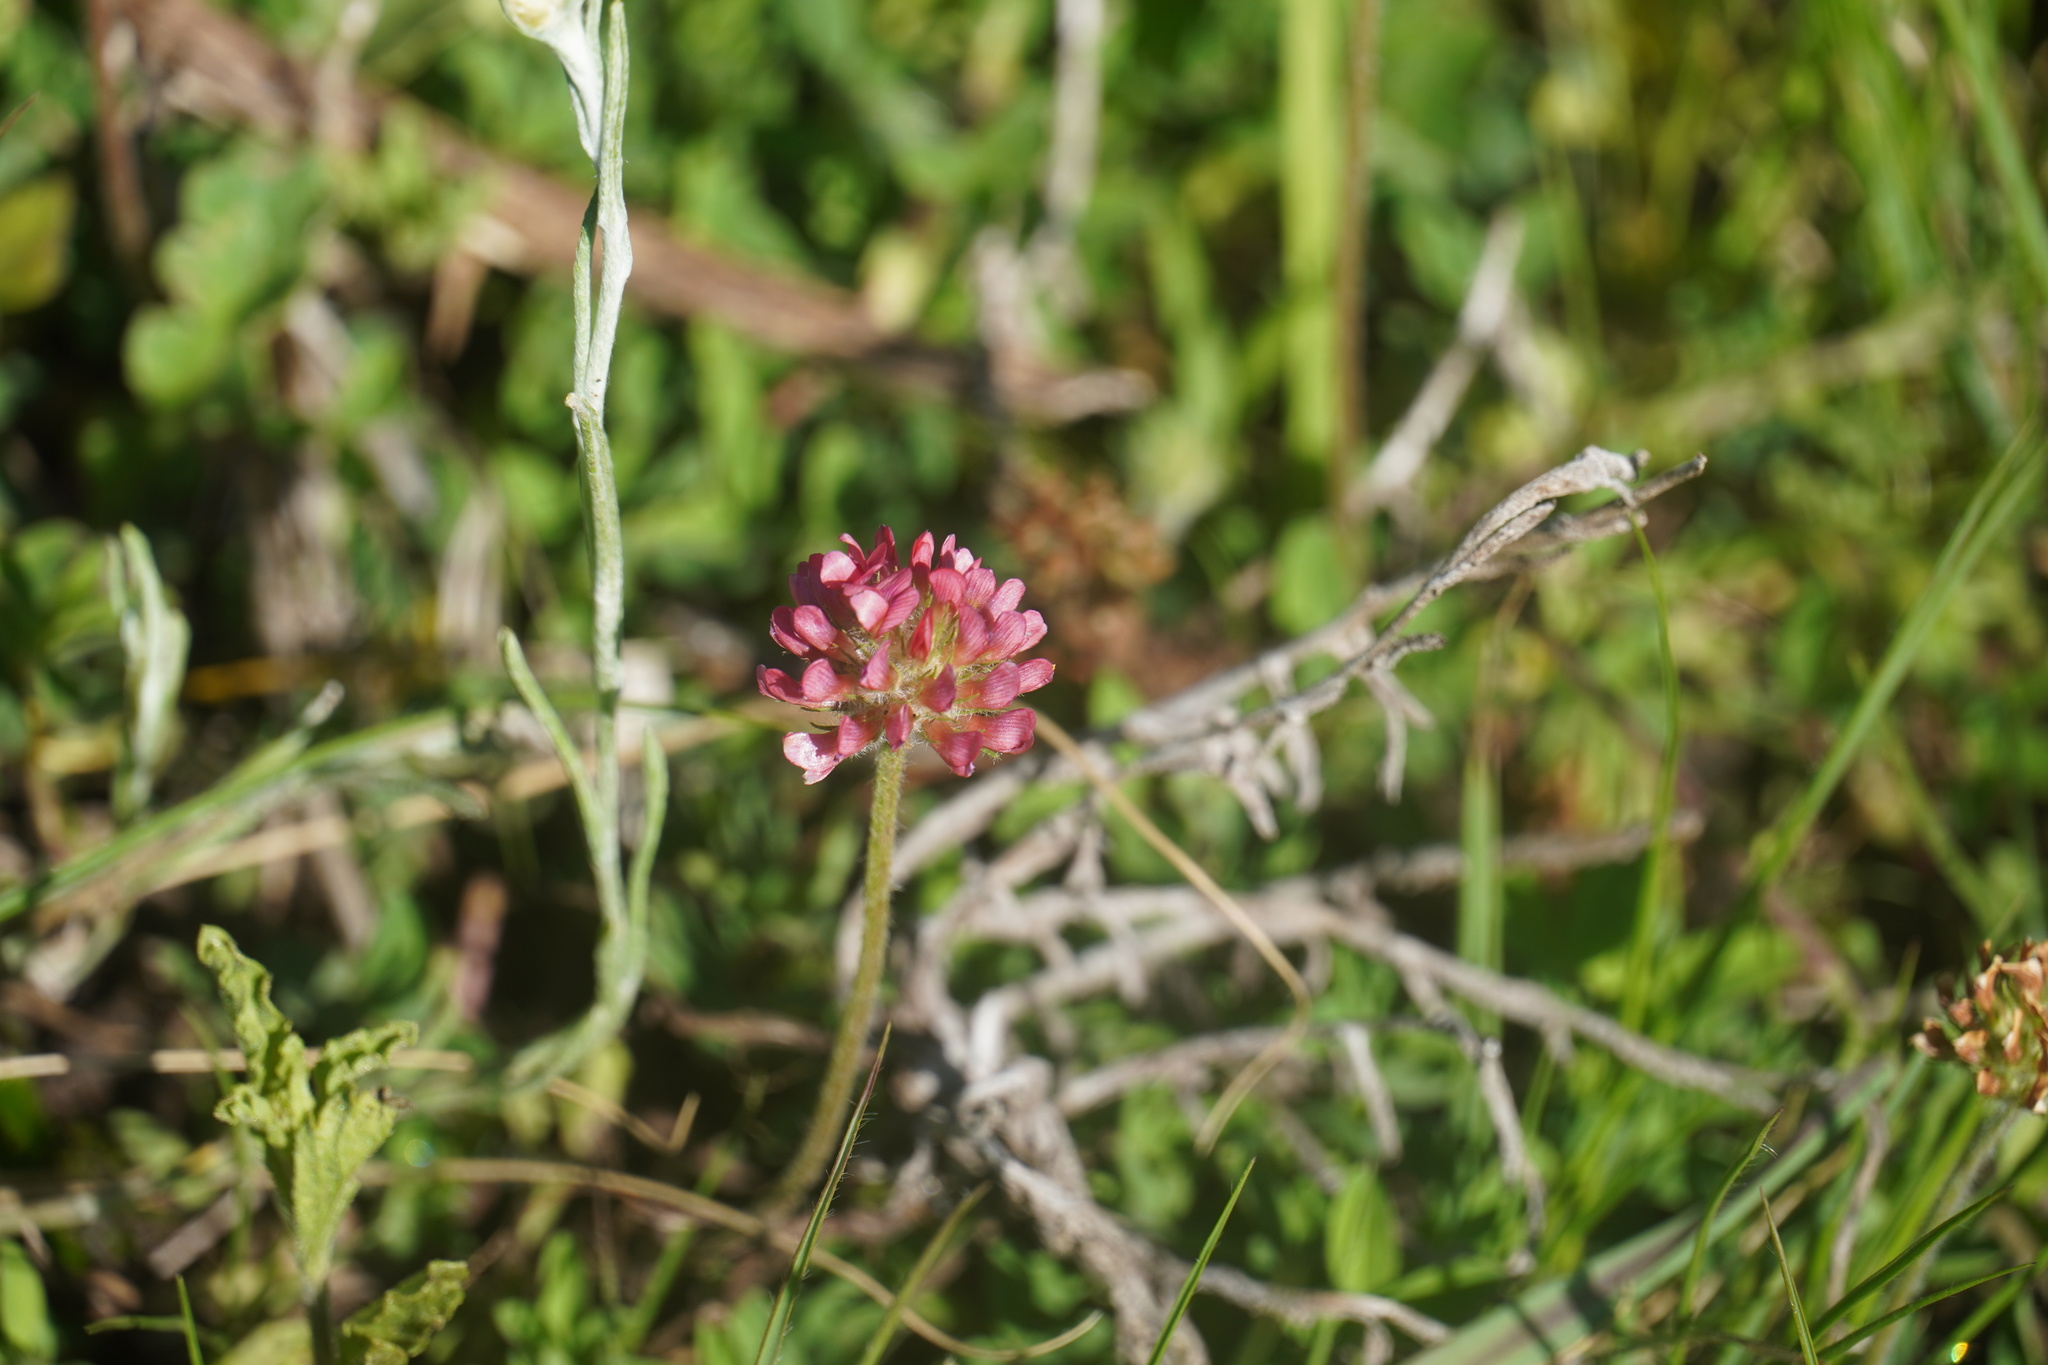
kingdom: Plantae
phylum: Tracheophyta
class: Magnoliopsida
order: Fabales
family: Fabaceae
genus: Trifolium
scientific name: Trifolium burchellianum
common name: Burchell's clover
